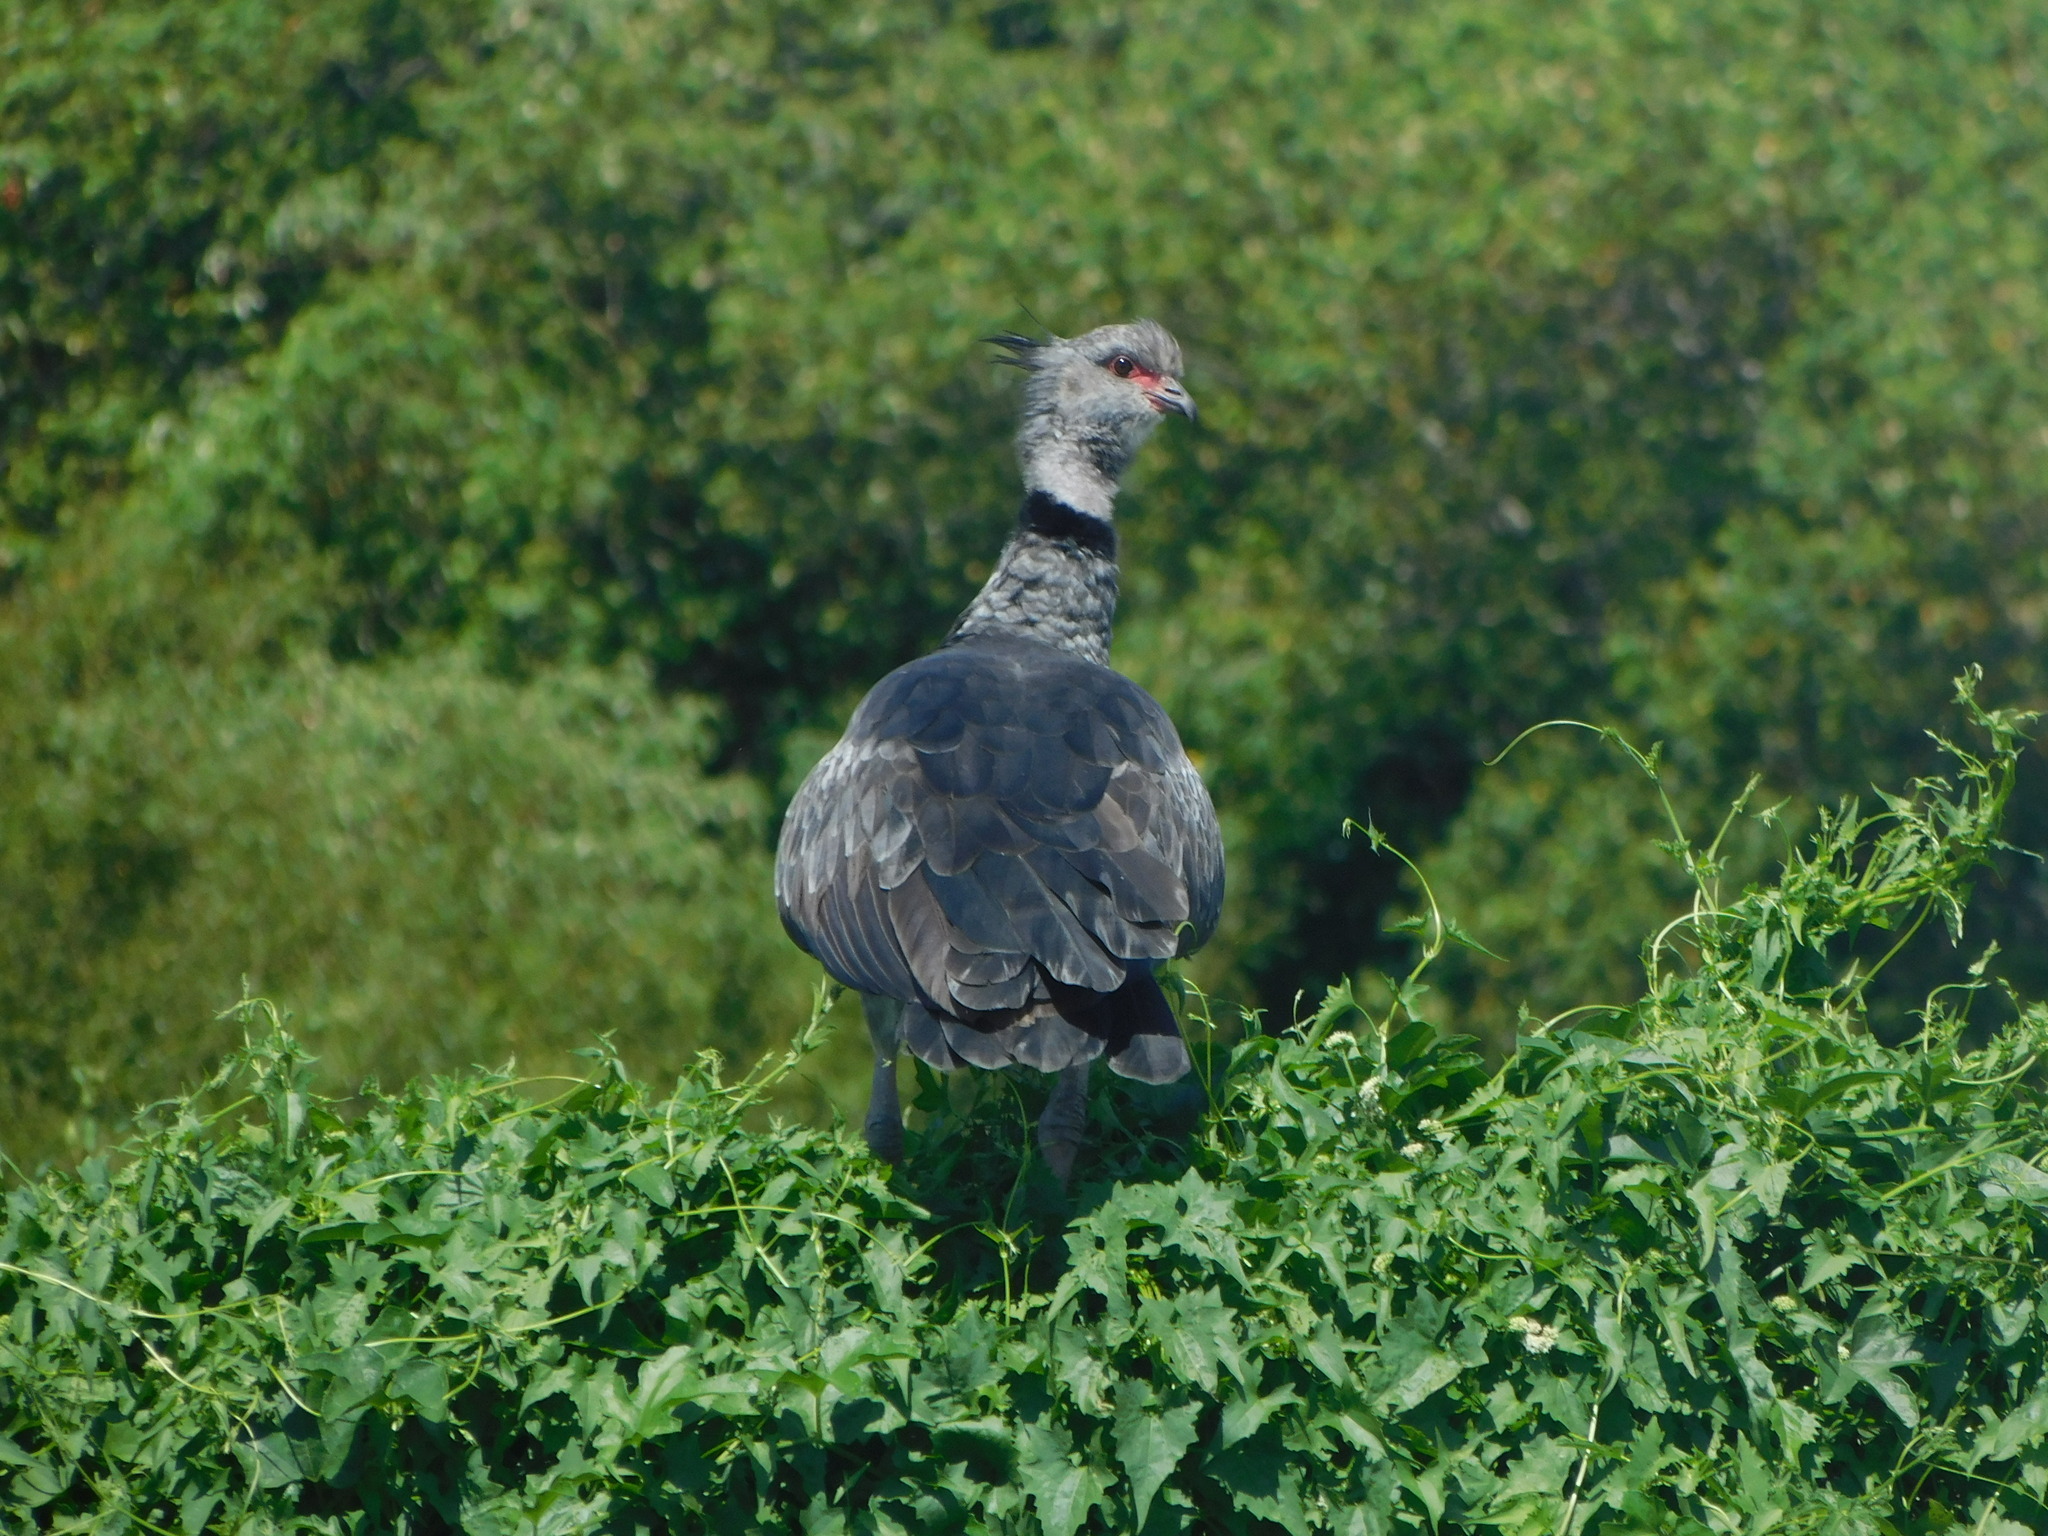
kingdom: Animalia
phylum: Chordata
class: Aves
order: Anseriformes
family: Anhimidae
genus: Chauna
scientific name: Chauna torquata
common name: Southern screamer
